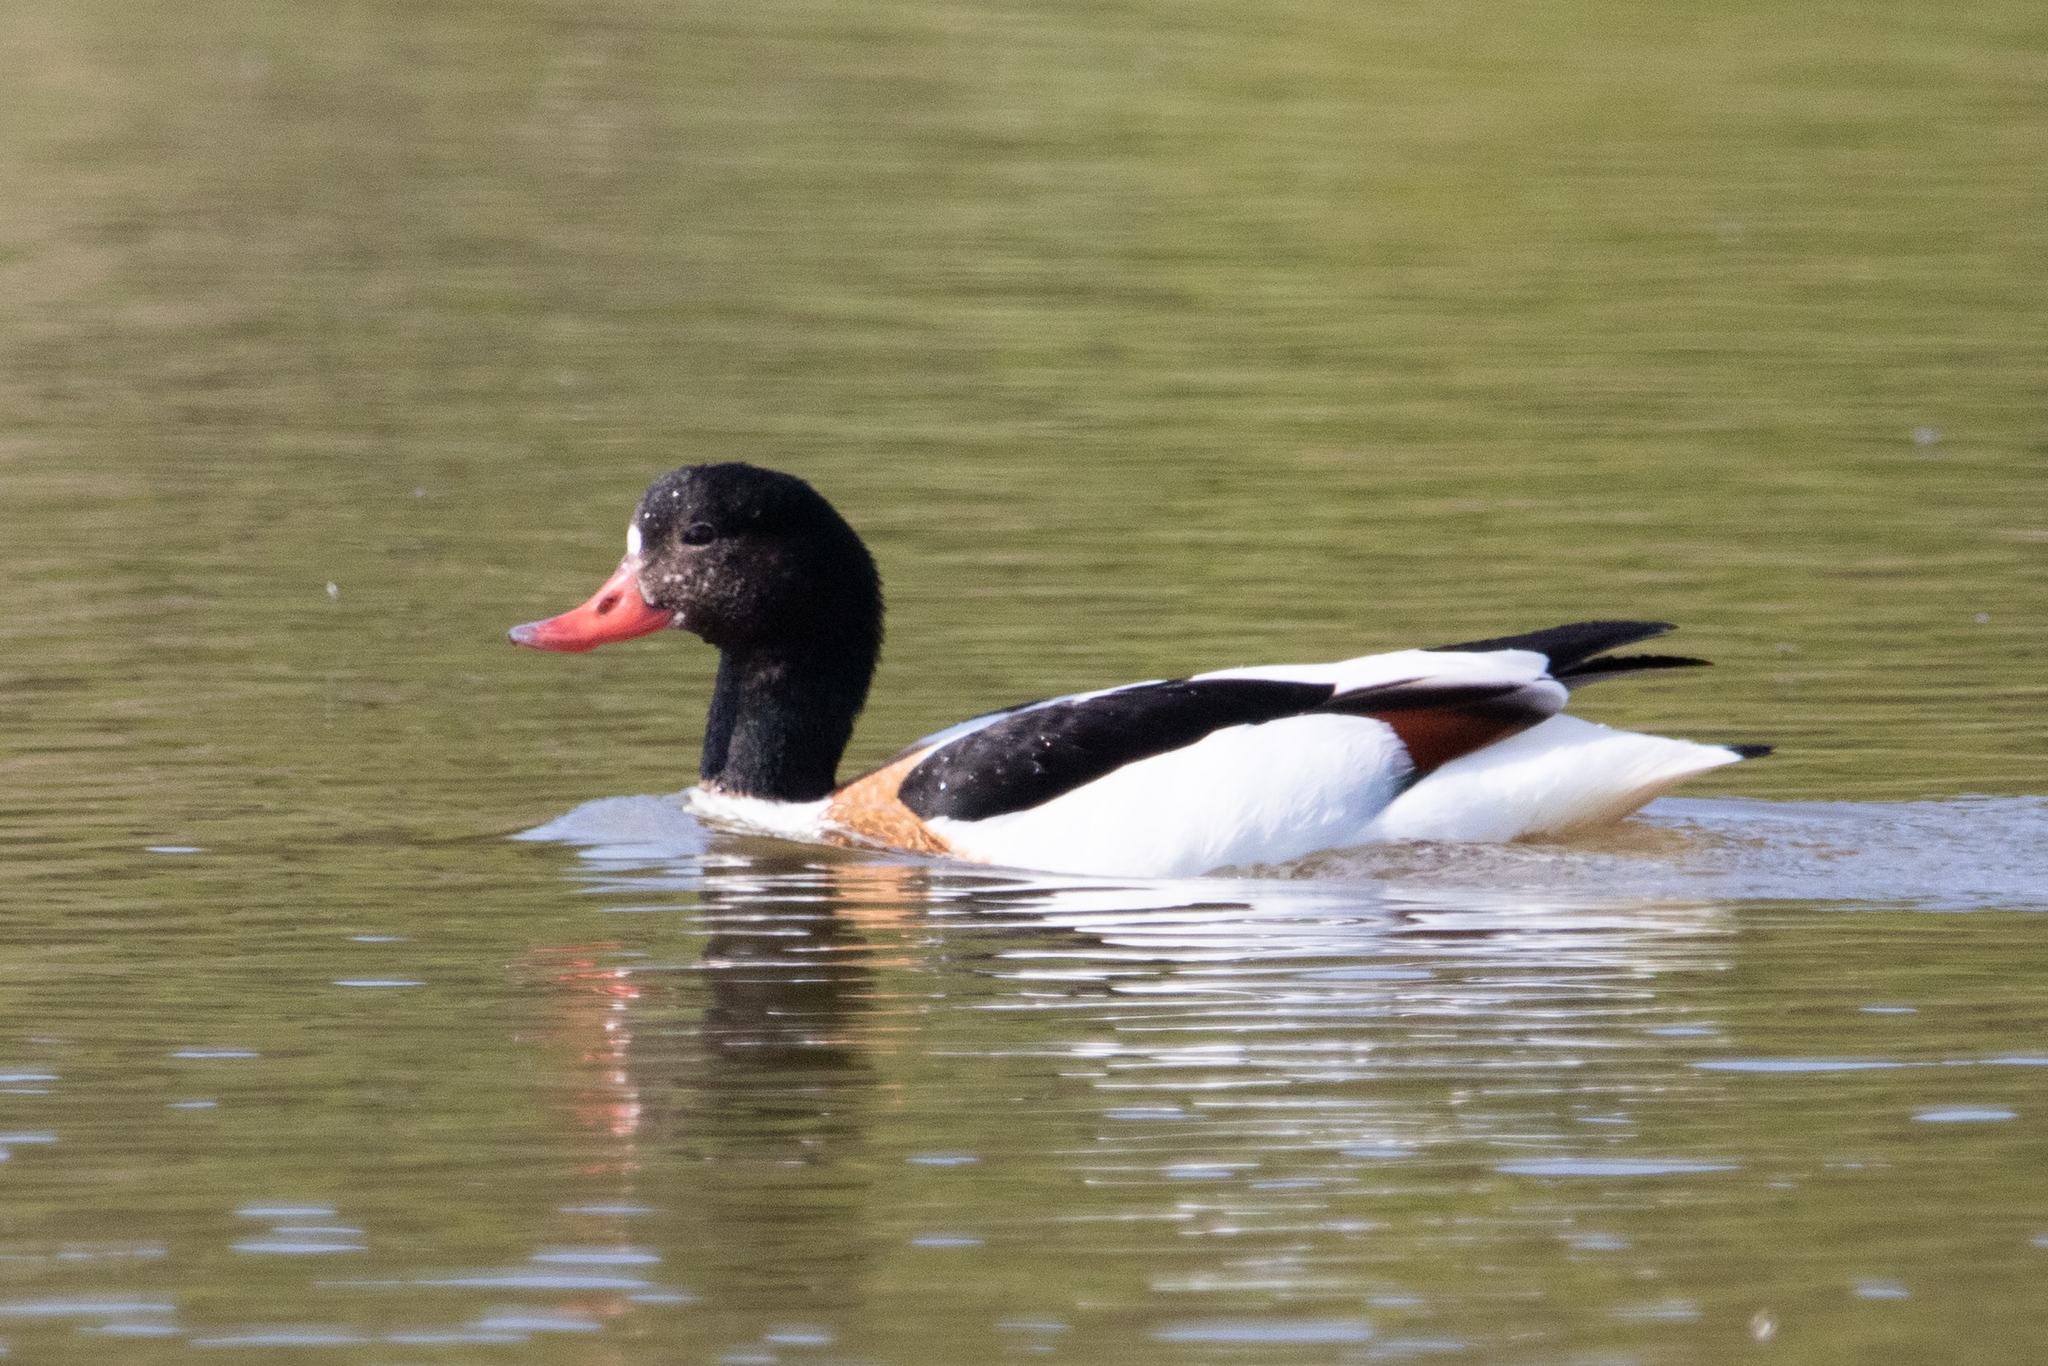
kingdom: Animalia
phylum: Chordata
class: Aves
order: Anseriformes
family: Anatidae
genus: Tadorna
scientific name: Tadorna tadorna
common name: Common shelduck
